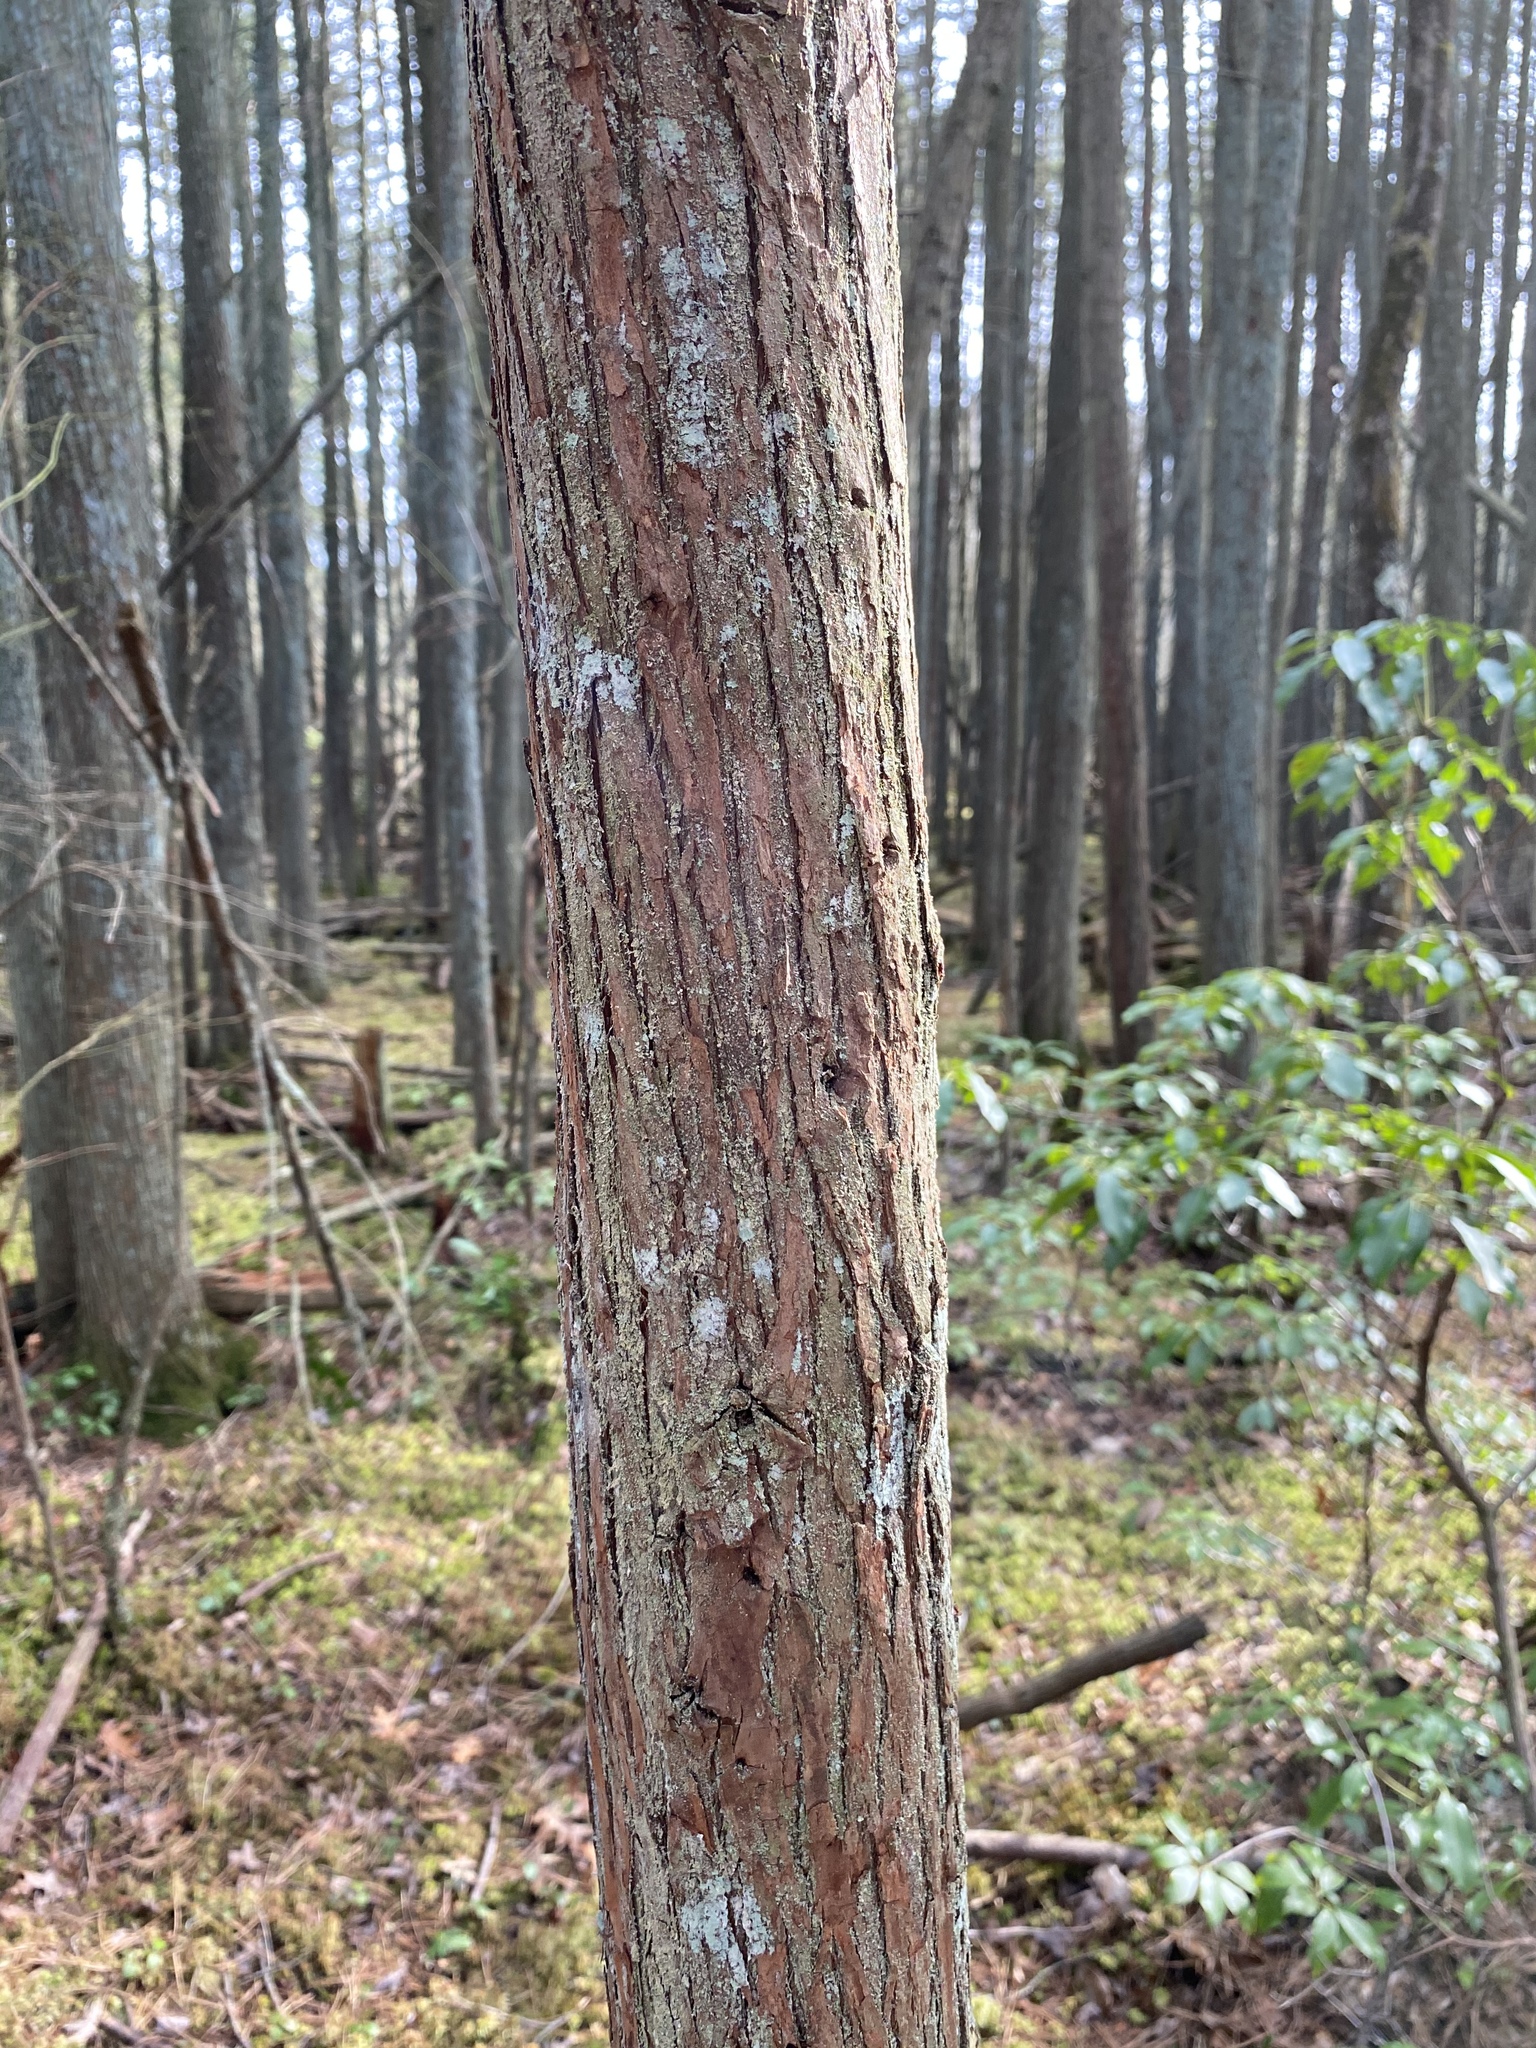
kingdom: Plantae
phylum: Tracheophyta
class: Pinopsida
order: Pinales
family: Cupressaceae
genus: Chamaecyparis
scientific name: Chamaecyparis thyoides
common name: Atlantic white cedar
